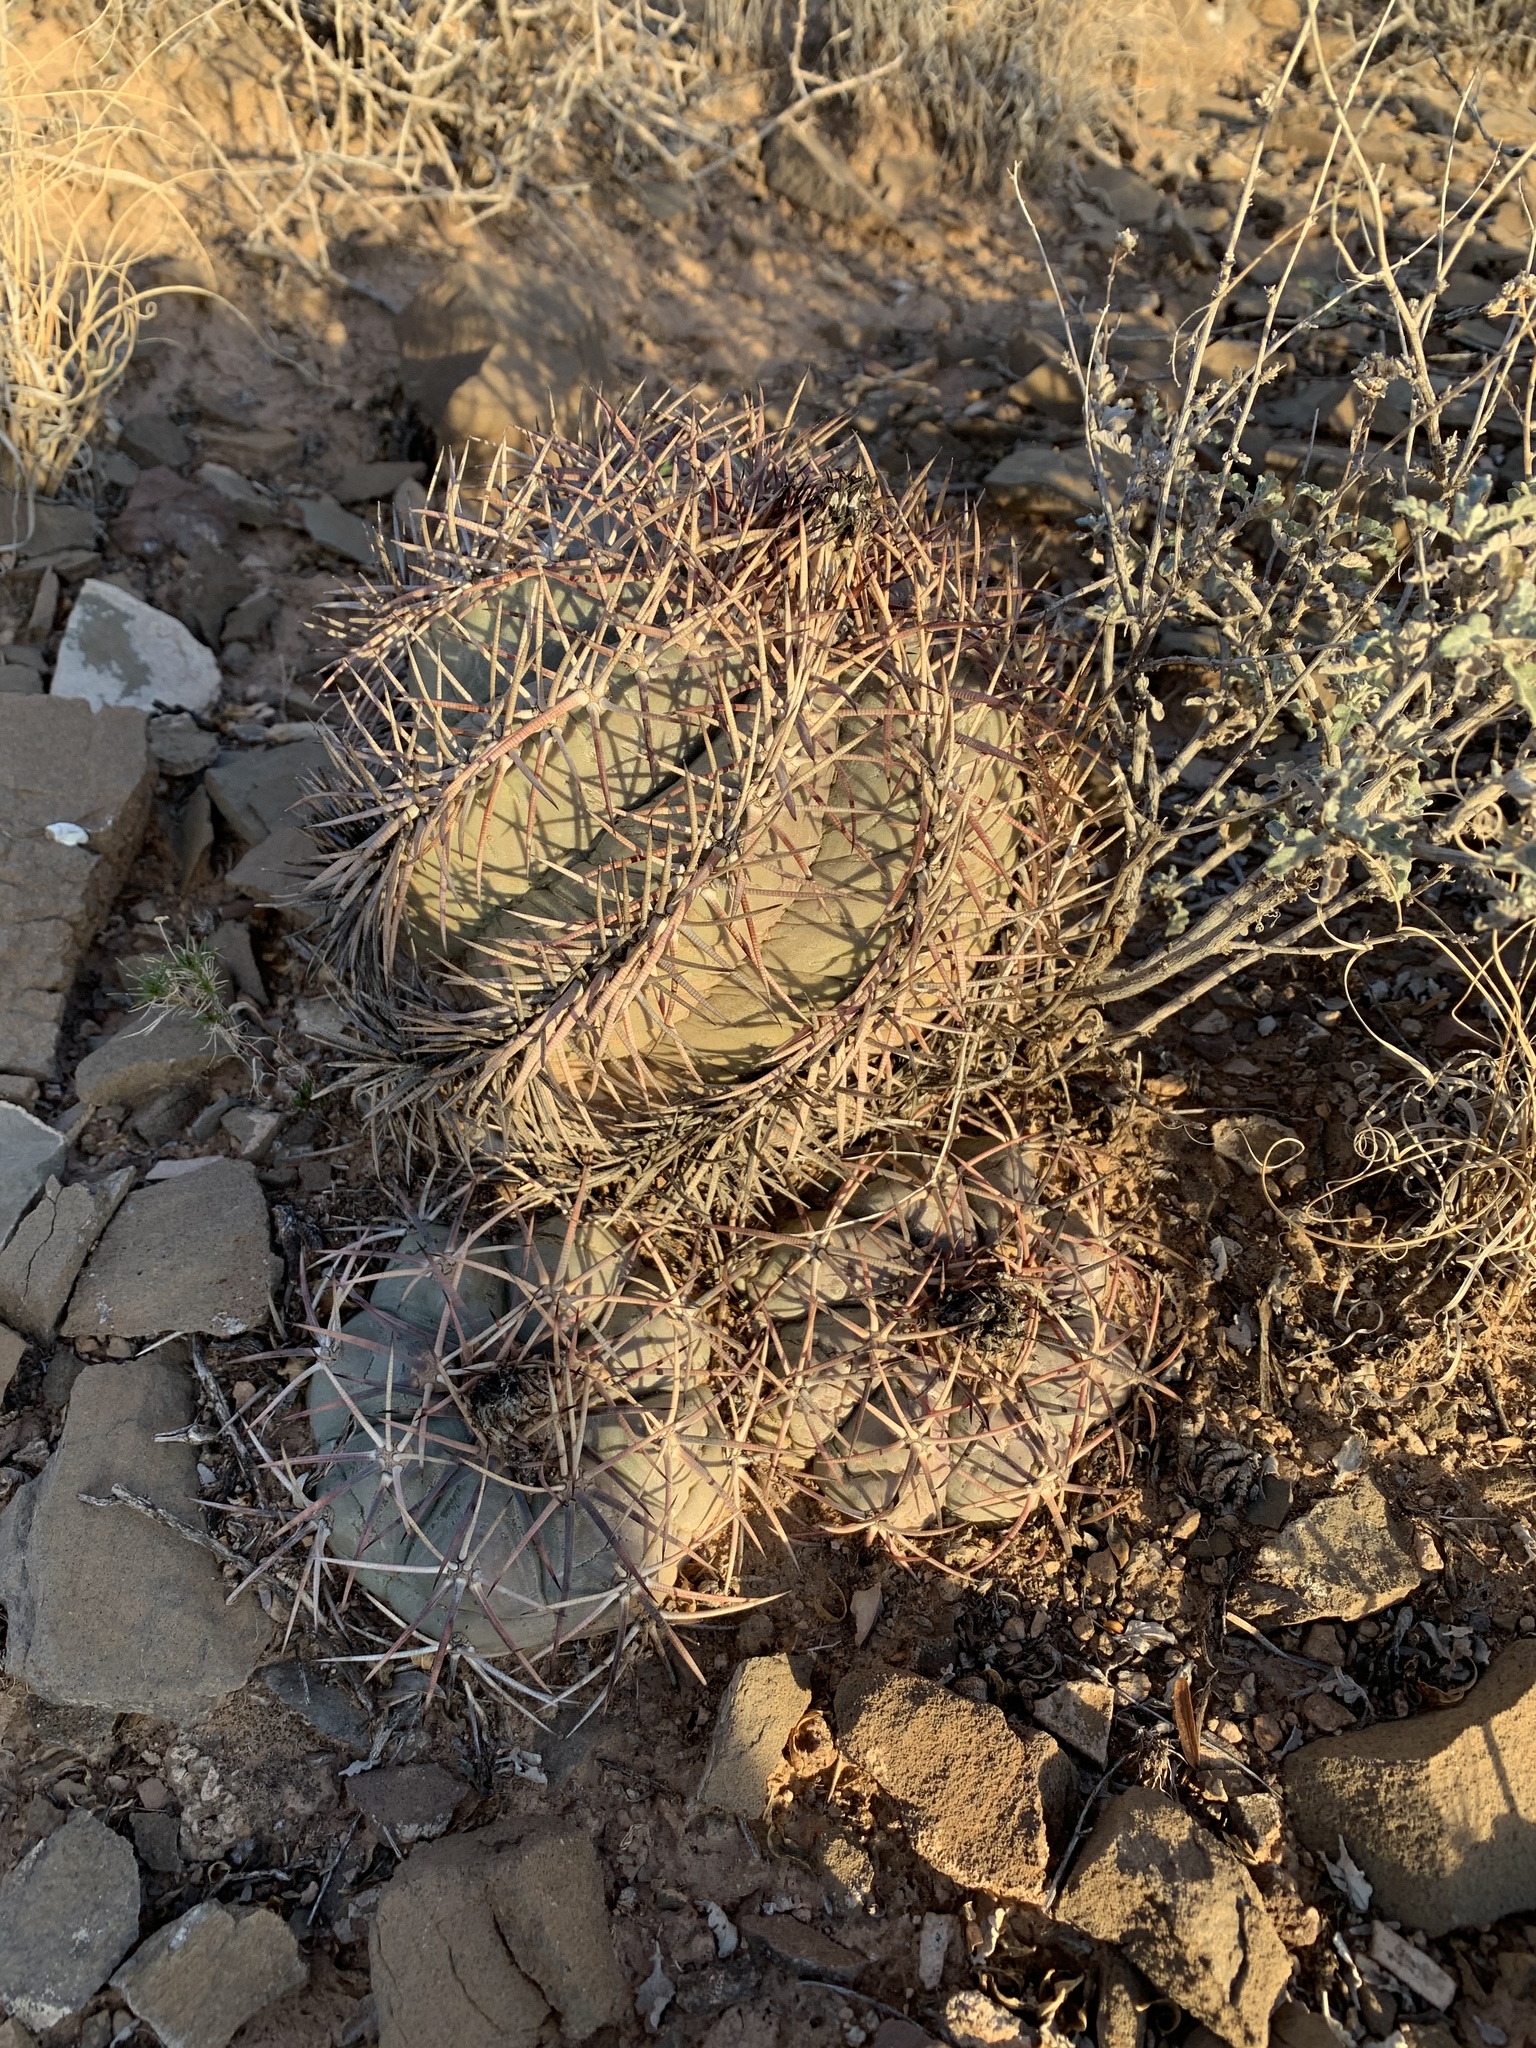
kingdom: Plantae
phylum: Tracheophyta
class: Magnoliopsida
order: Caryophyllales
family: Cactaceae
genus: Echinocactus
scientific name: Echinocactus horizonthalonius
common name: Devilshead
